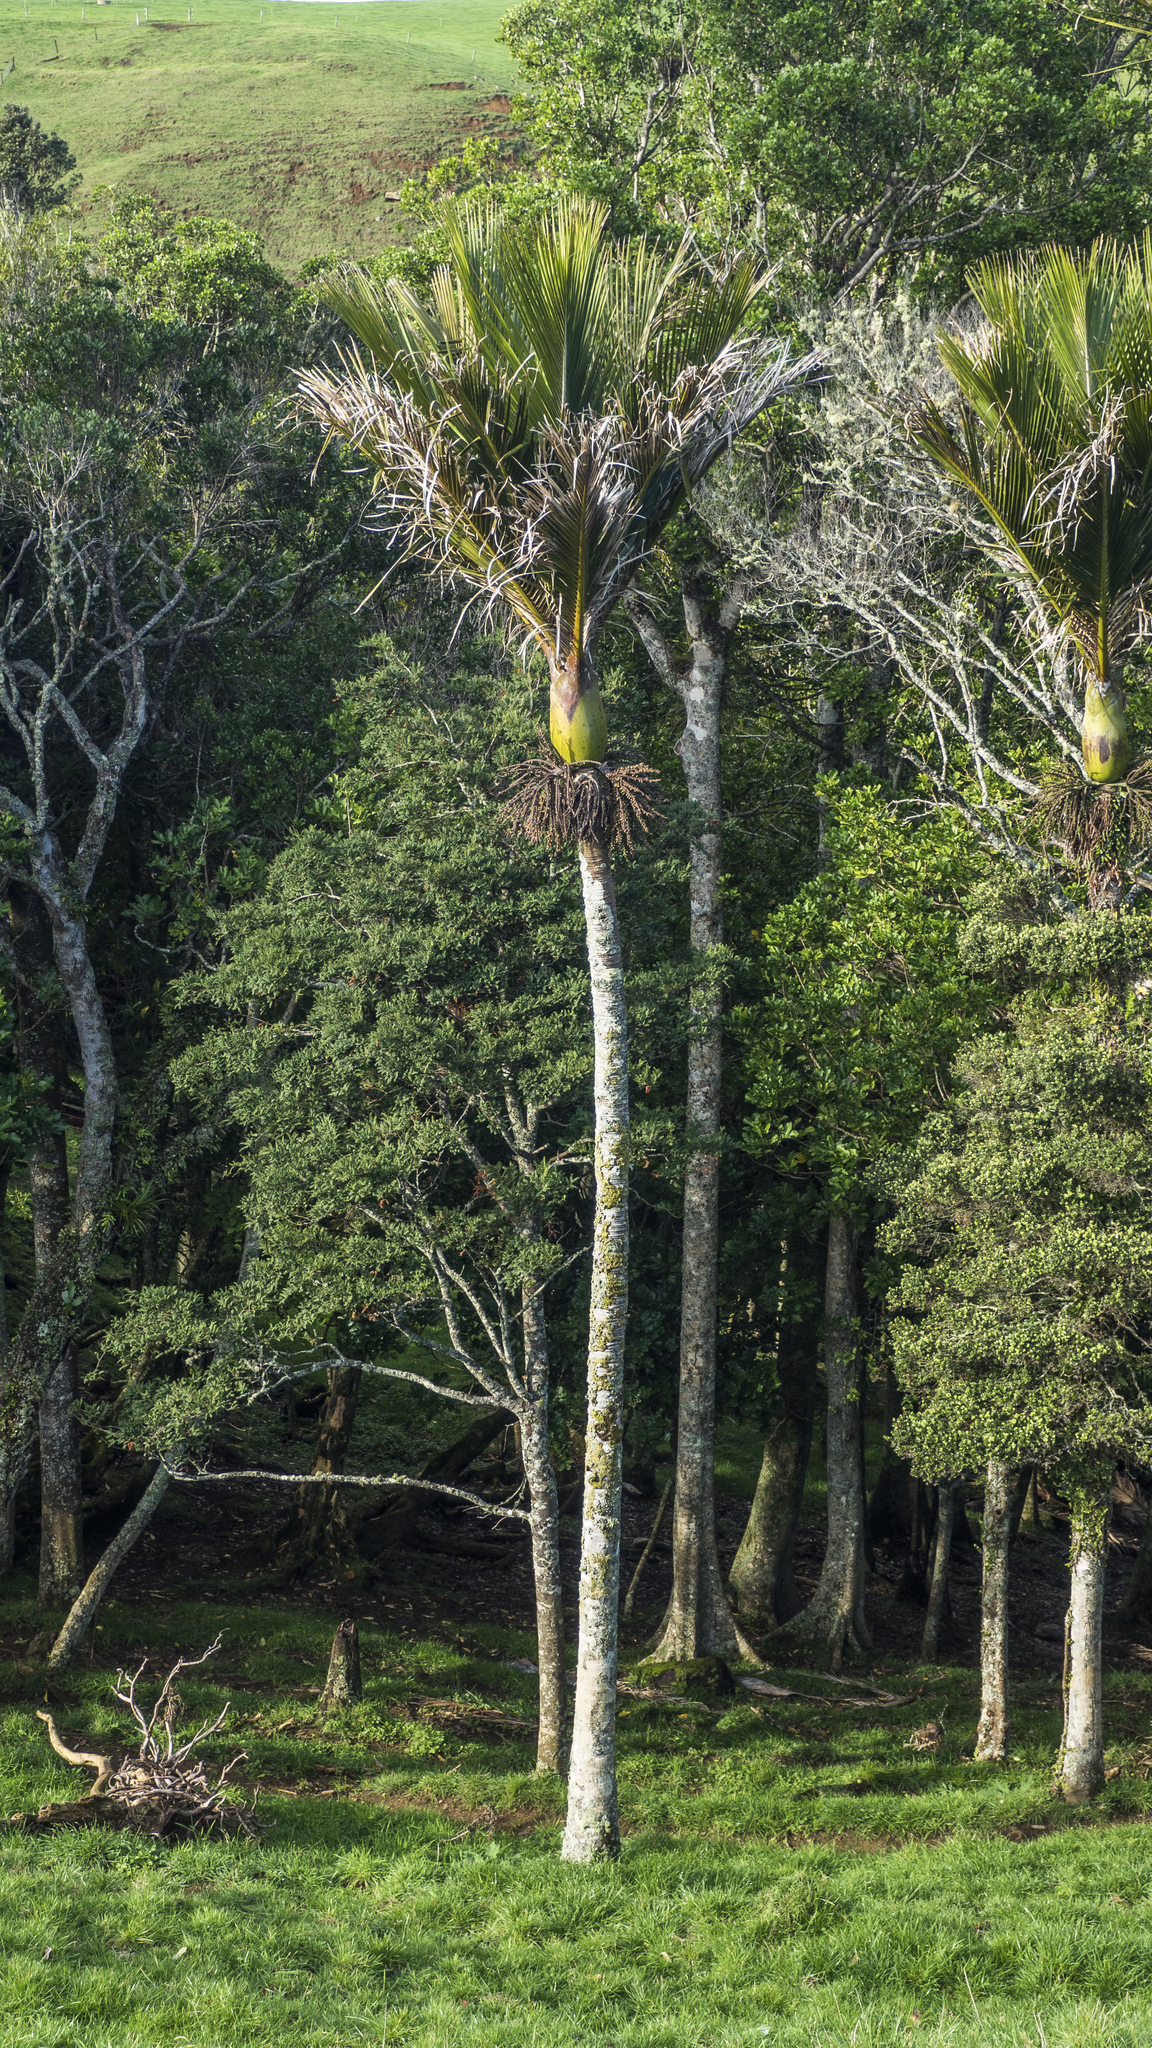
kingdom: Plantae
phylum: Tracheophyta
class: Liliopsida
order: Arecales
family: Arecaceae
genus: Rhopalostylis
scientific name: Rhopalostylis sapida
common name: Feather-duster palm
